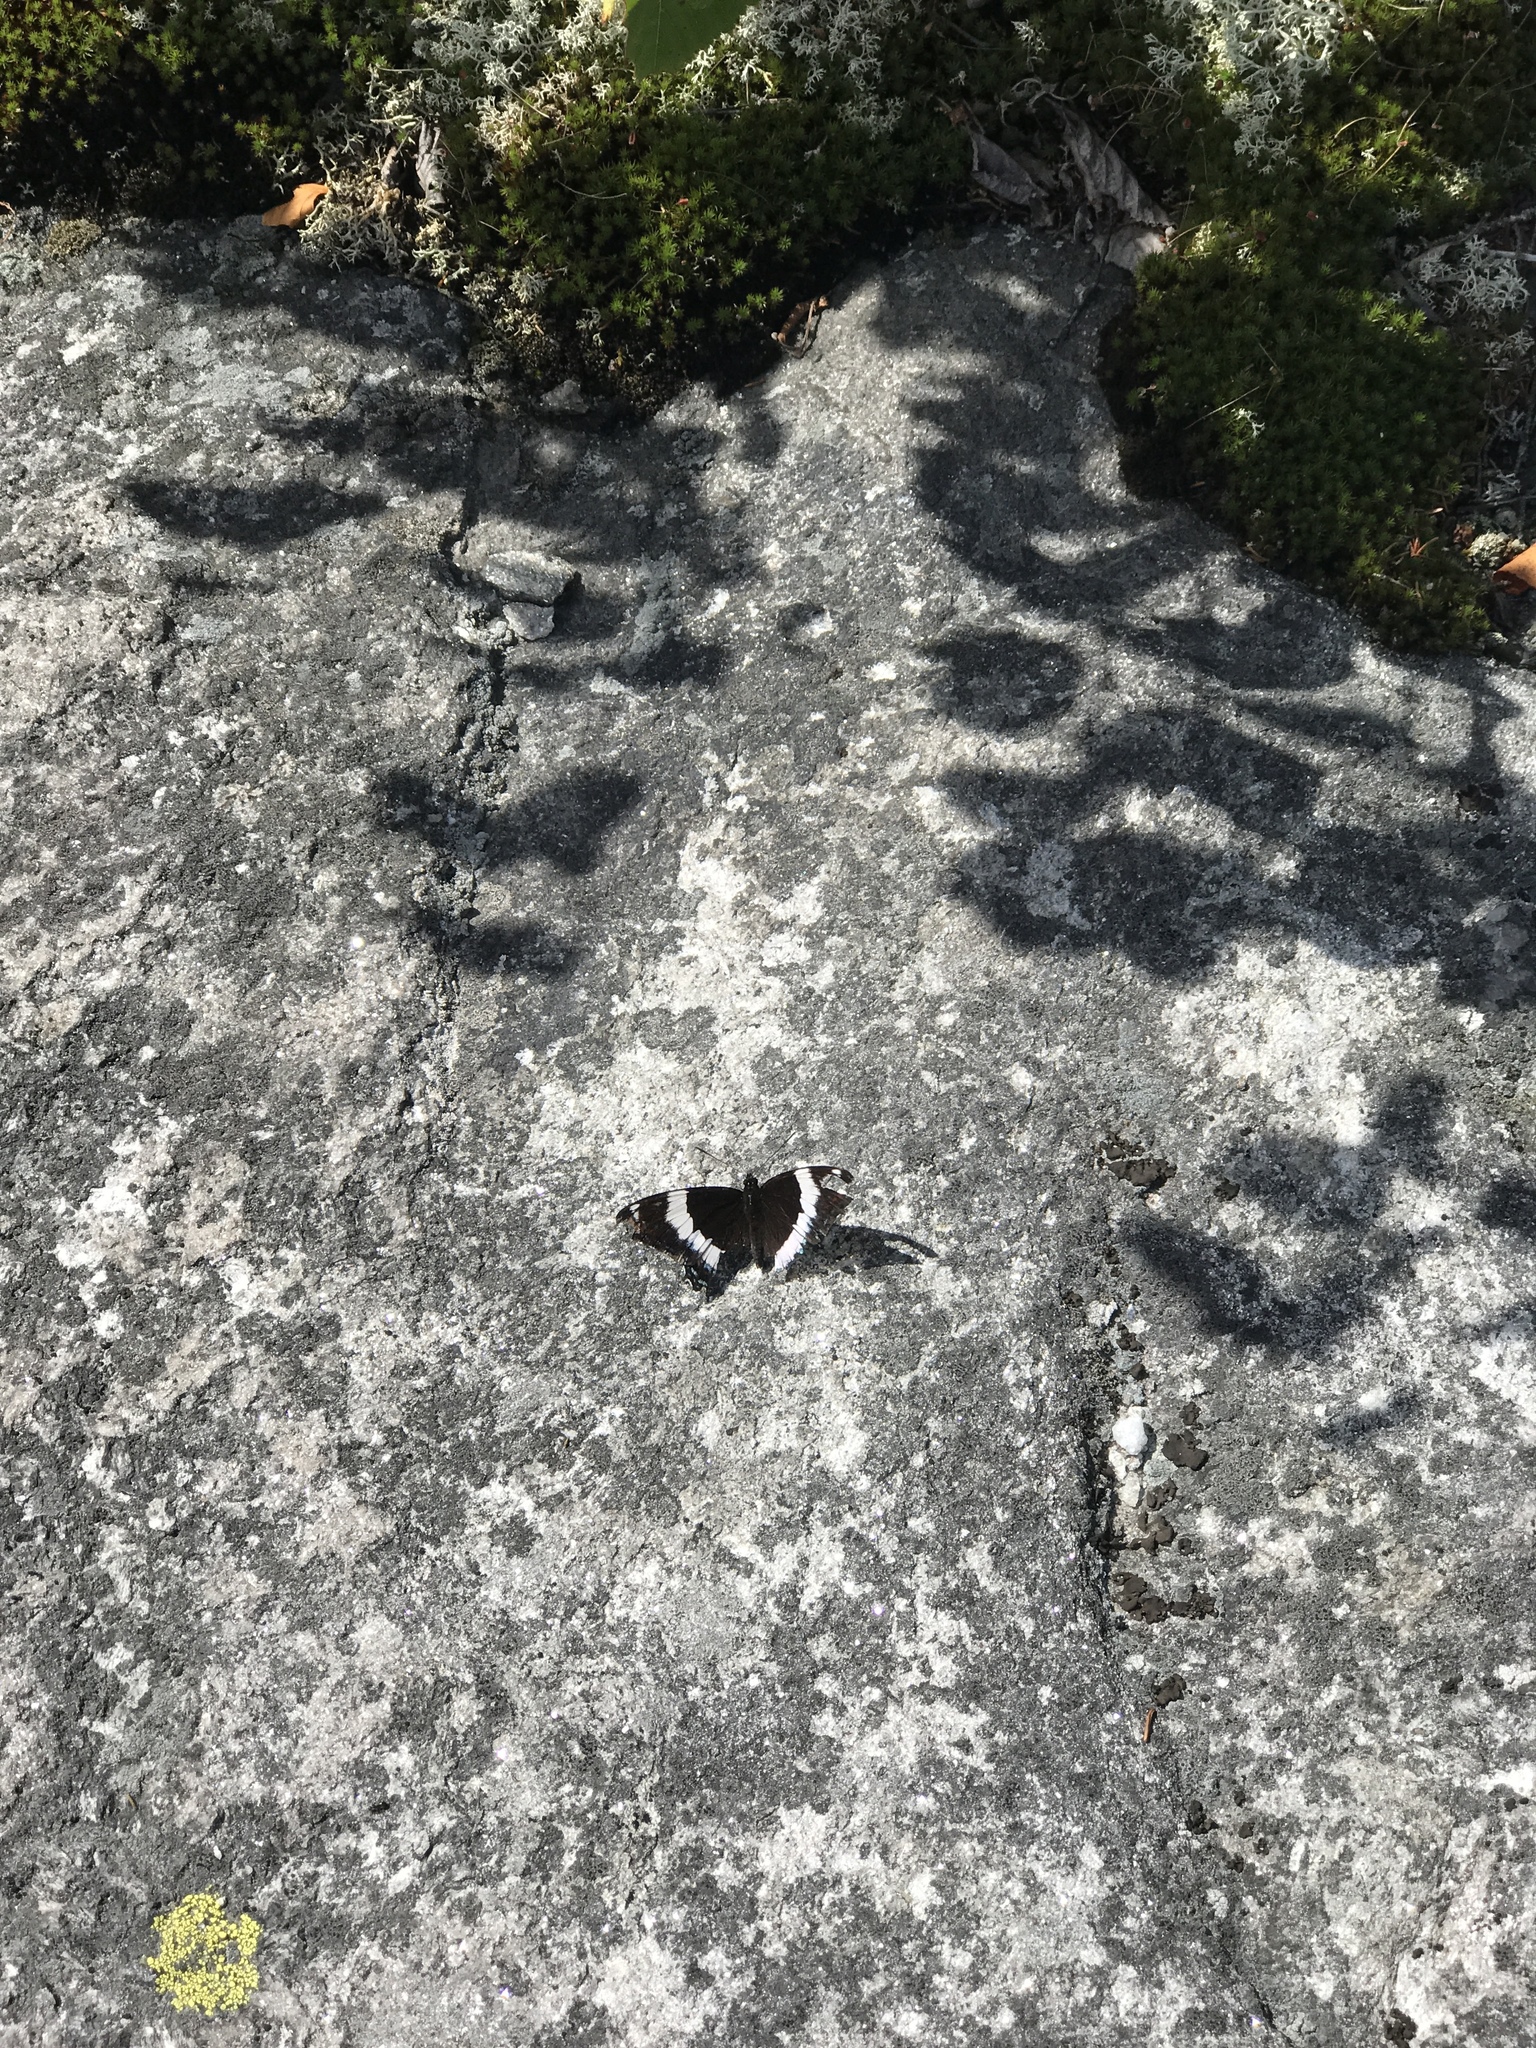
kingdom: Animalia
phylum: Arthropoda
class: Insecta
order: Lepidoptera
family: Nymphalidae
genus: Limenitis
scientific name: Limenitis arthemis
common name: Red-spotted admiral
